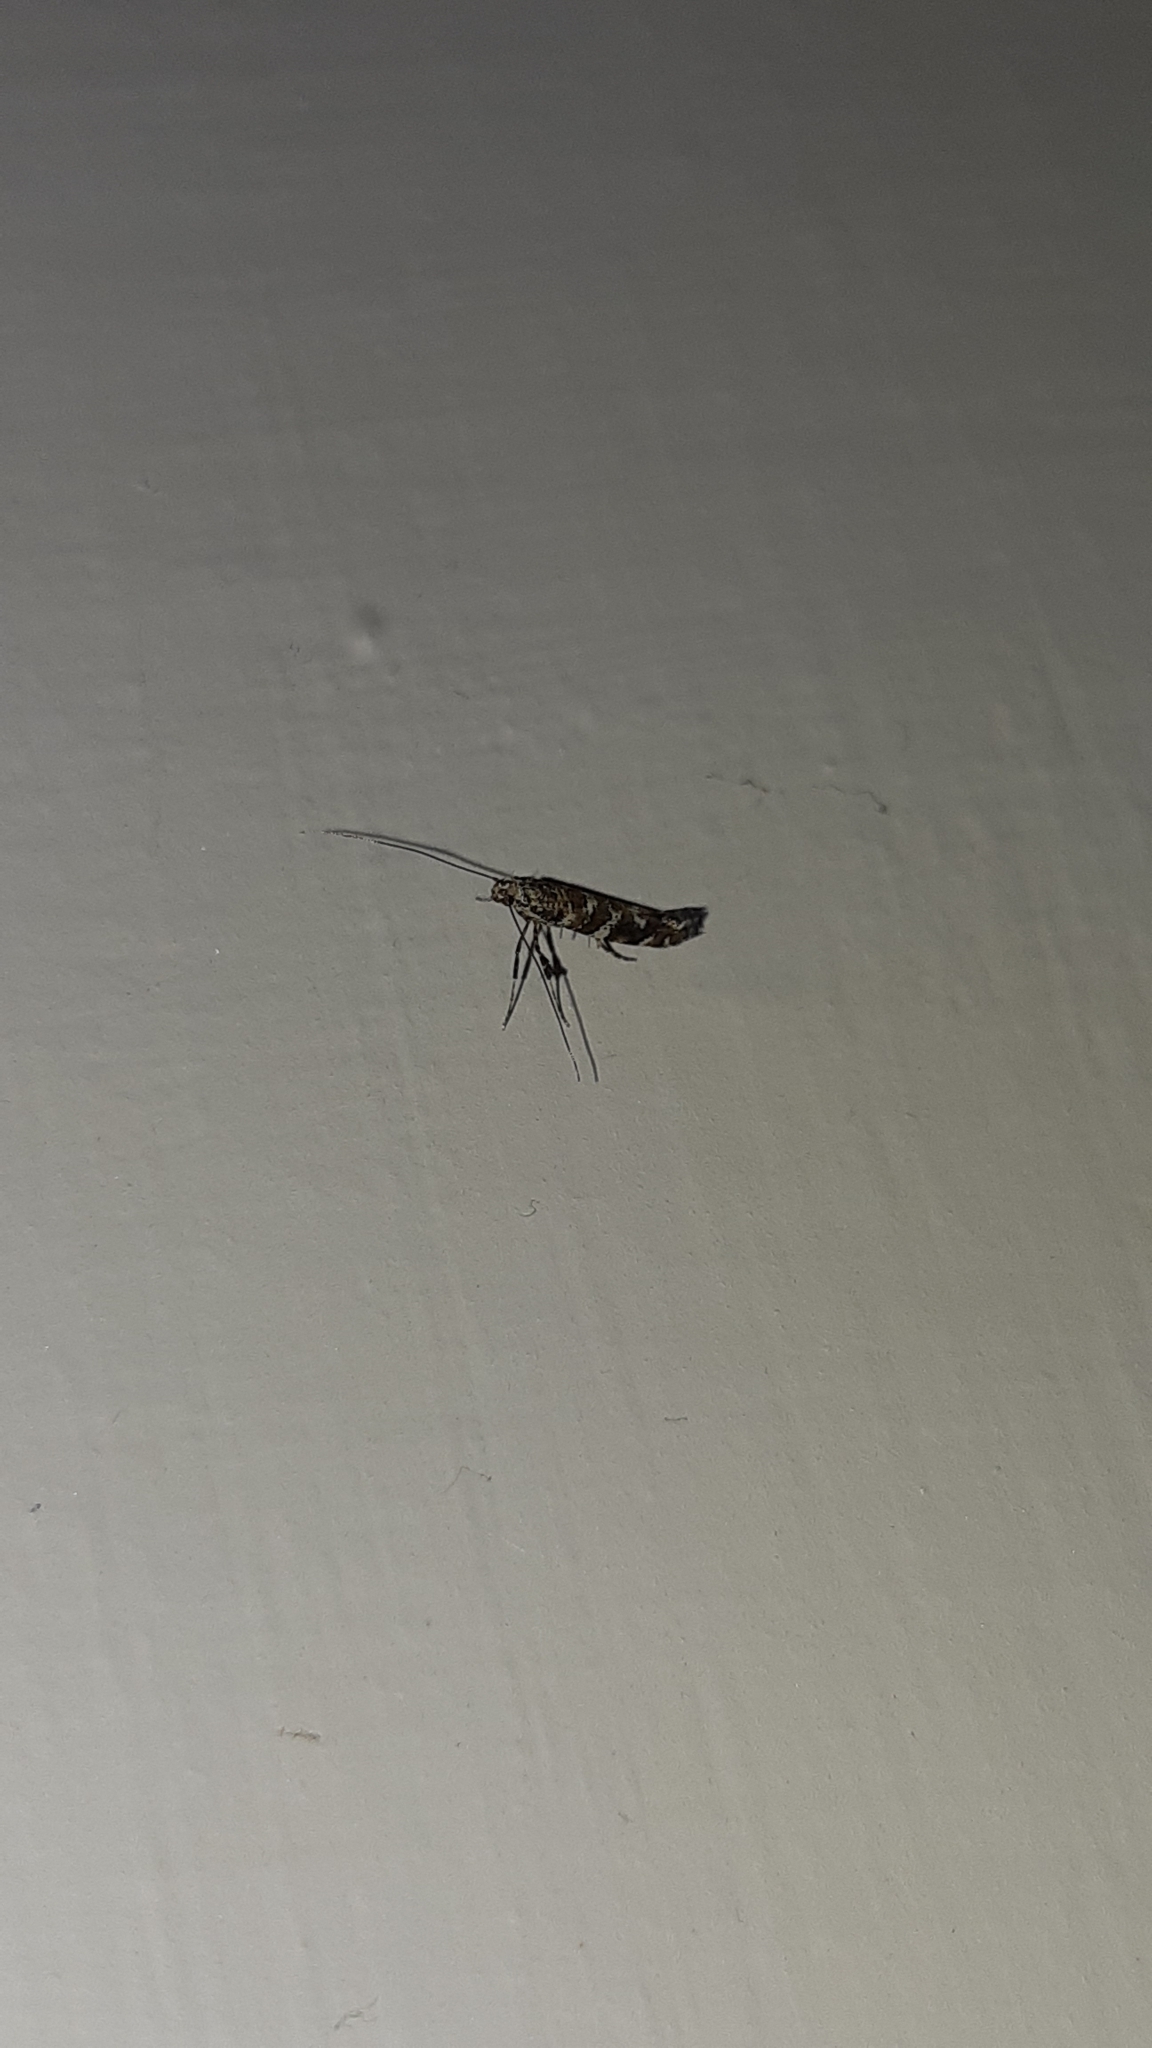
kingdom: Animalia
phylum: Arthropoda
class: Insecta
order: Lepidoptera
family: Gracillariidae
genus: Gracillaria
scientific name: Gracillaria syringella
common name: Common slender
